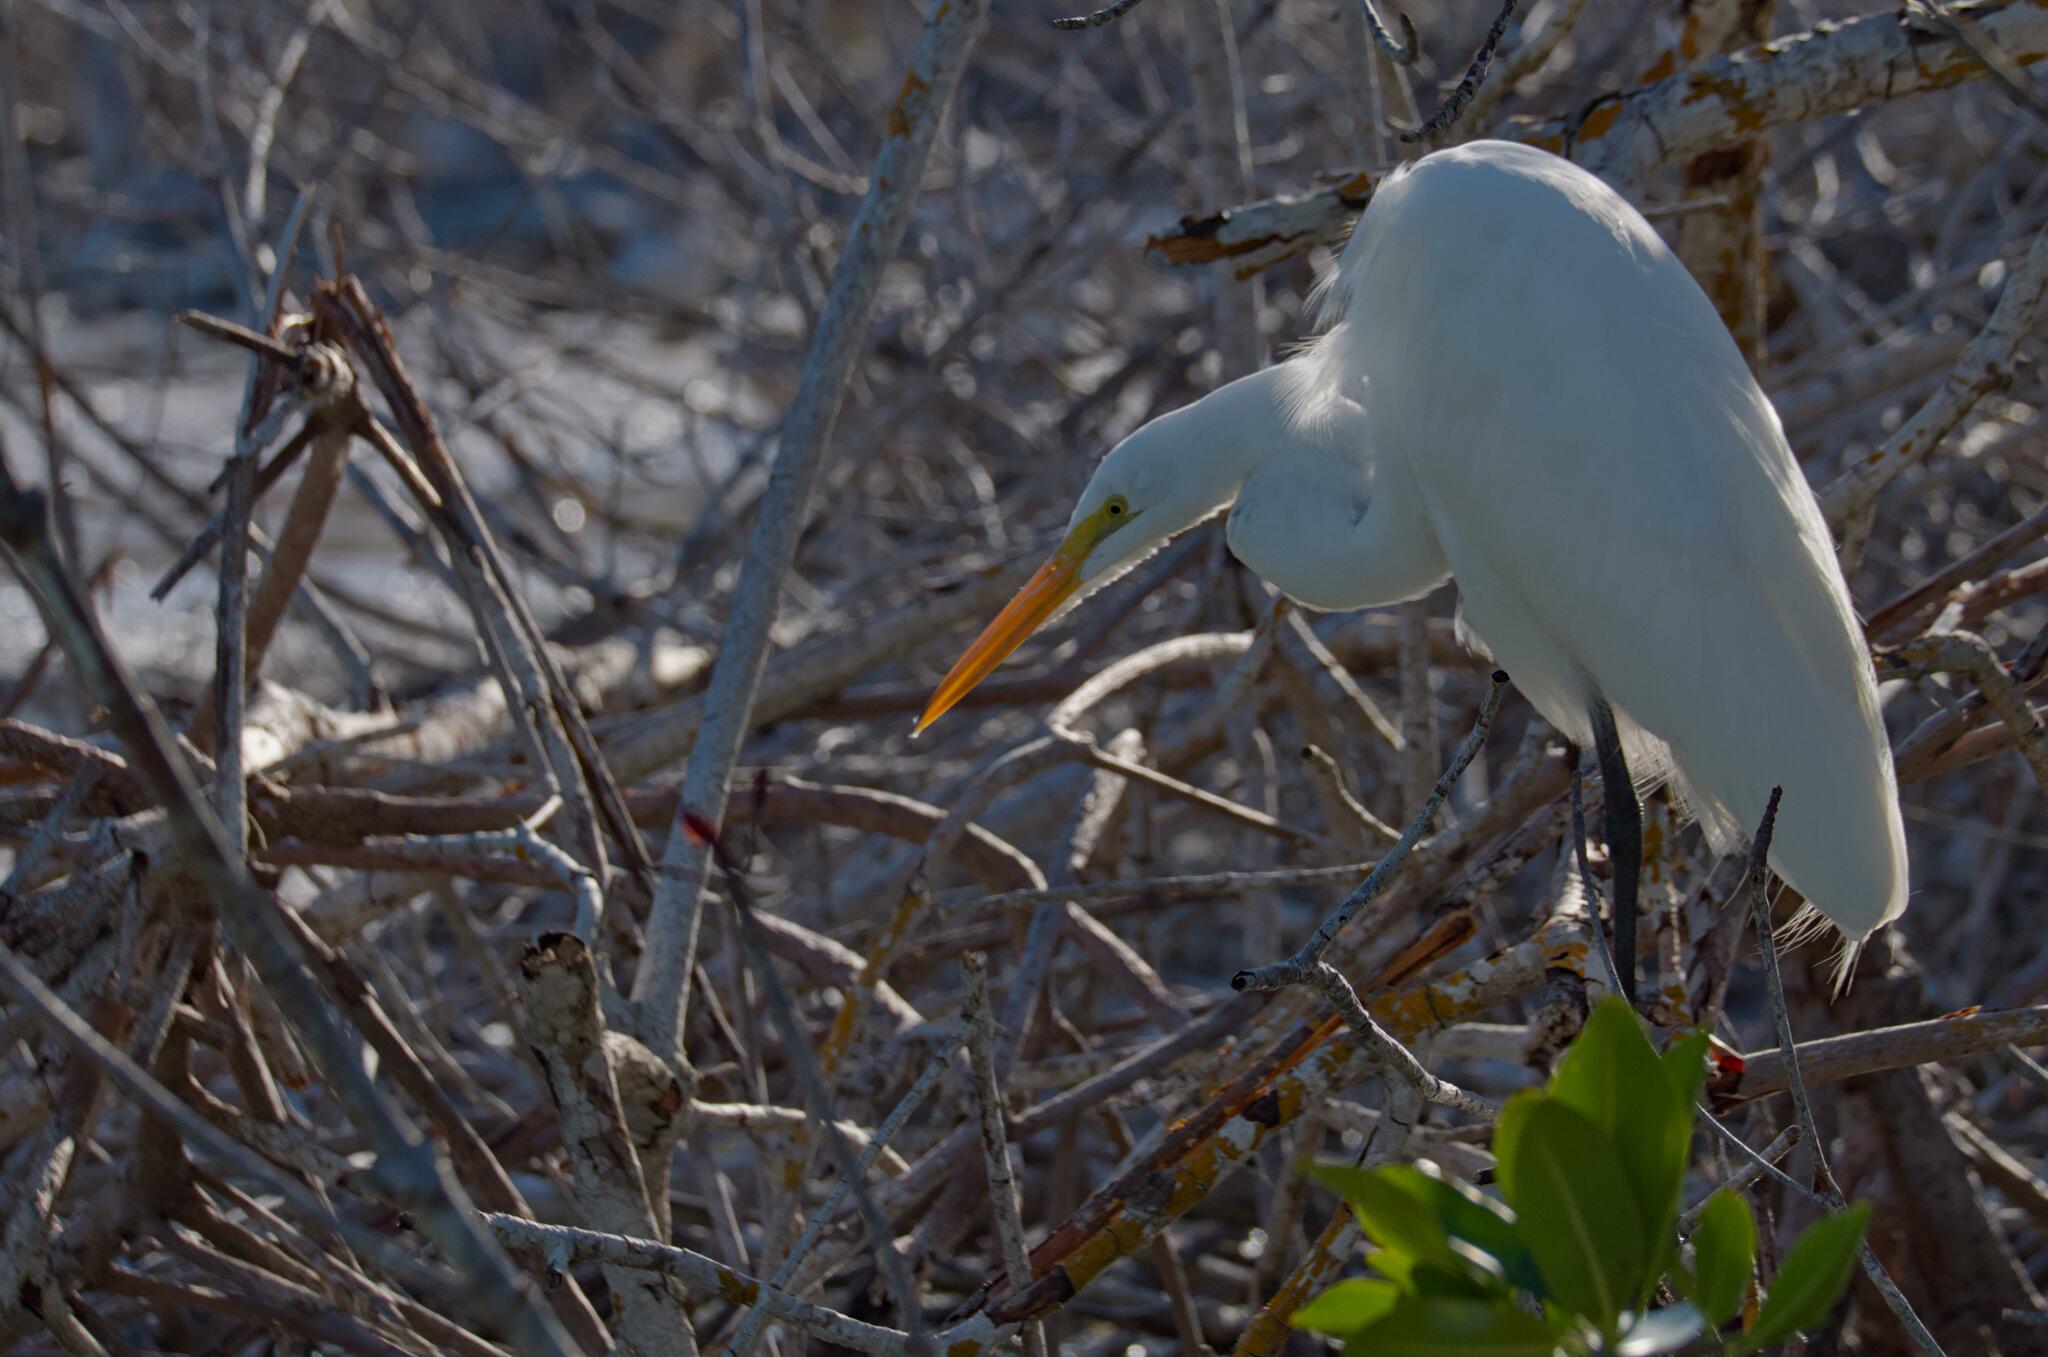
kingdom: Animalia
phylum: Chordata
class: Aves
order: Pelecaniformes
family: Ardeidae
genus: Ardea
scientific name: Ardea alba
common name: Great egret
